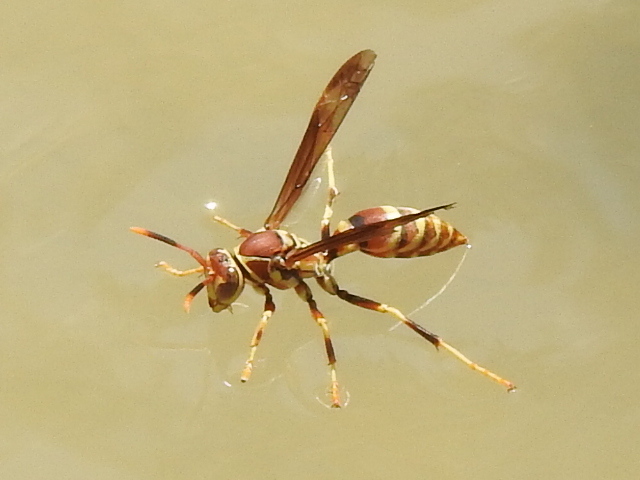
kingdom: Animalia
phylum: Arthropoda
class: Insecta
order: Hymenoptera
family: Eumenidae
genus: Polistes
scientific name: Polistes exclamans
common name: Paper wasp
